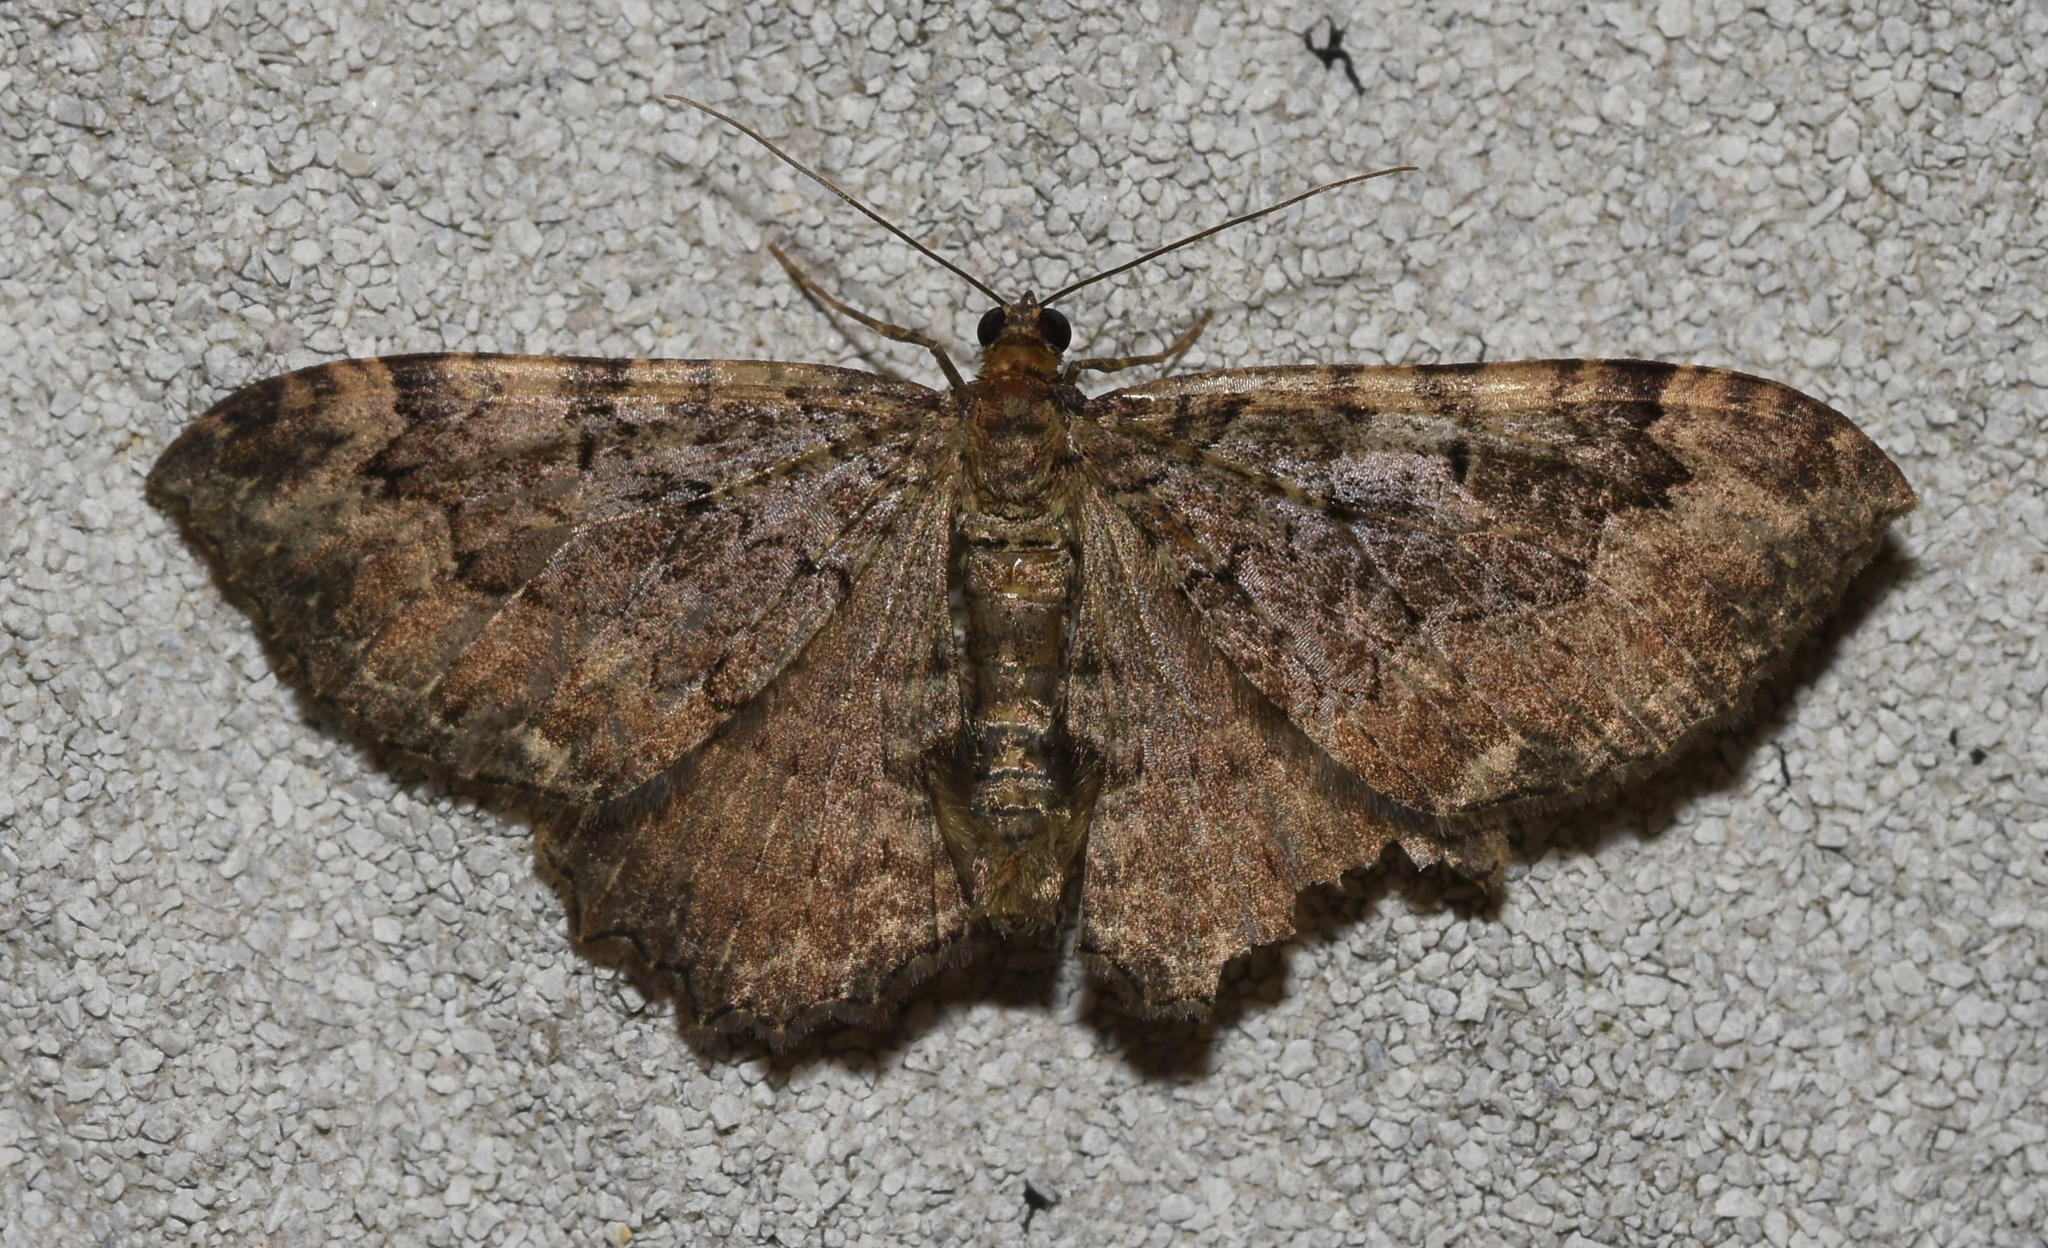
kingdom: Animalia
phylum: Arthropoda
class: Insecta
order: Lepidoptera
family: Geometridae
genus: Rheumaptera
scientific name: Rheumaptera
